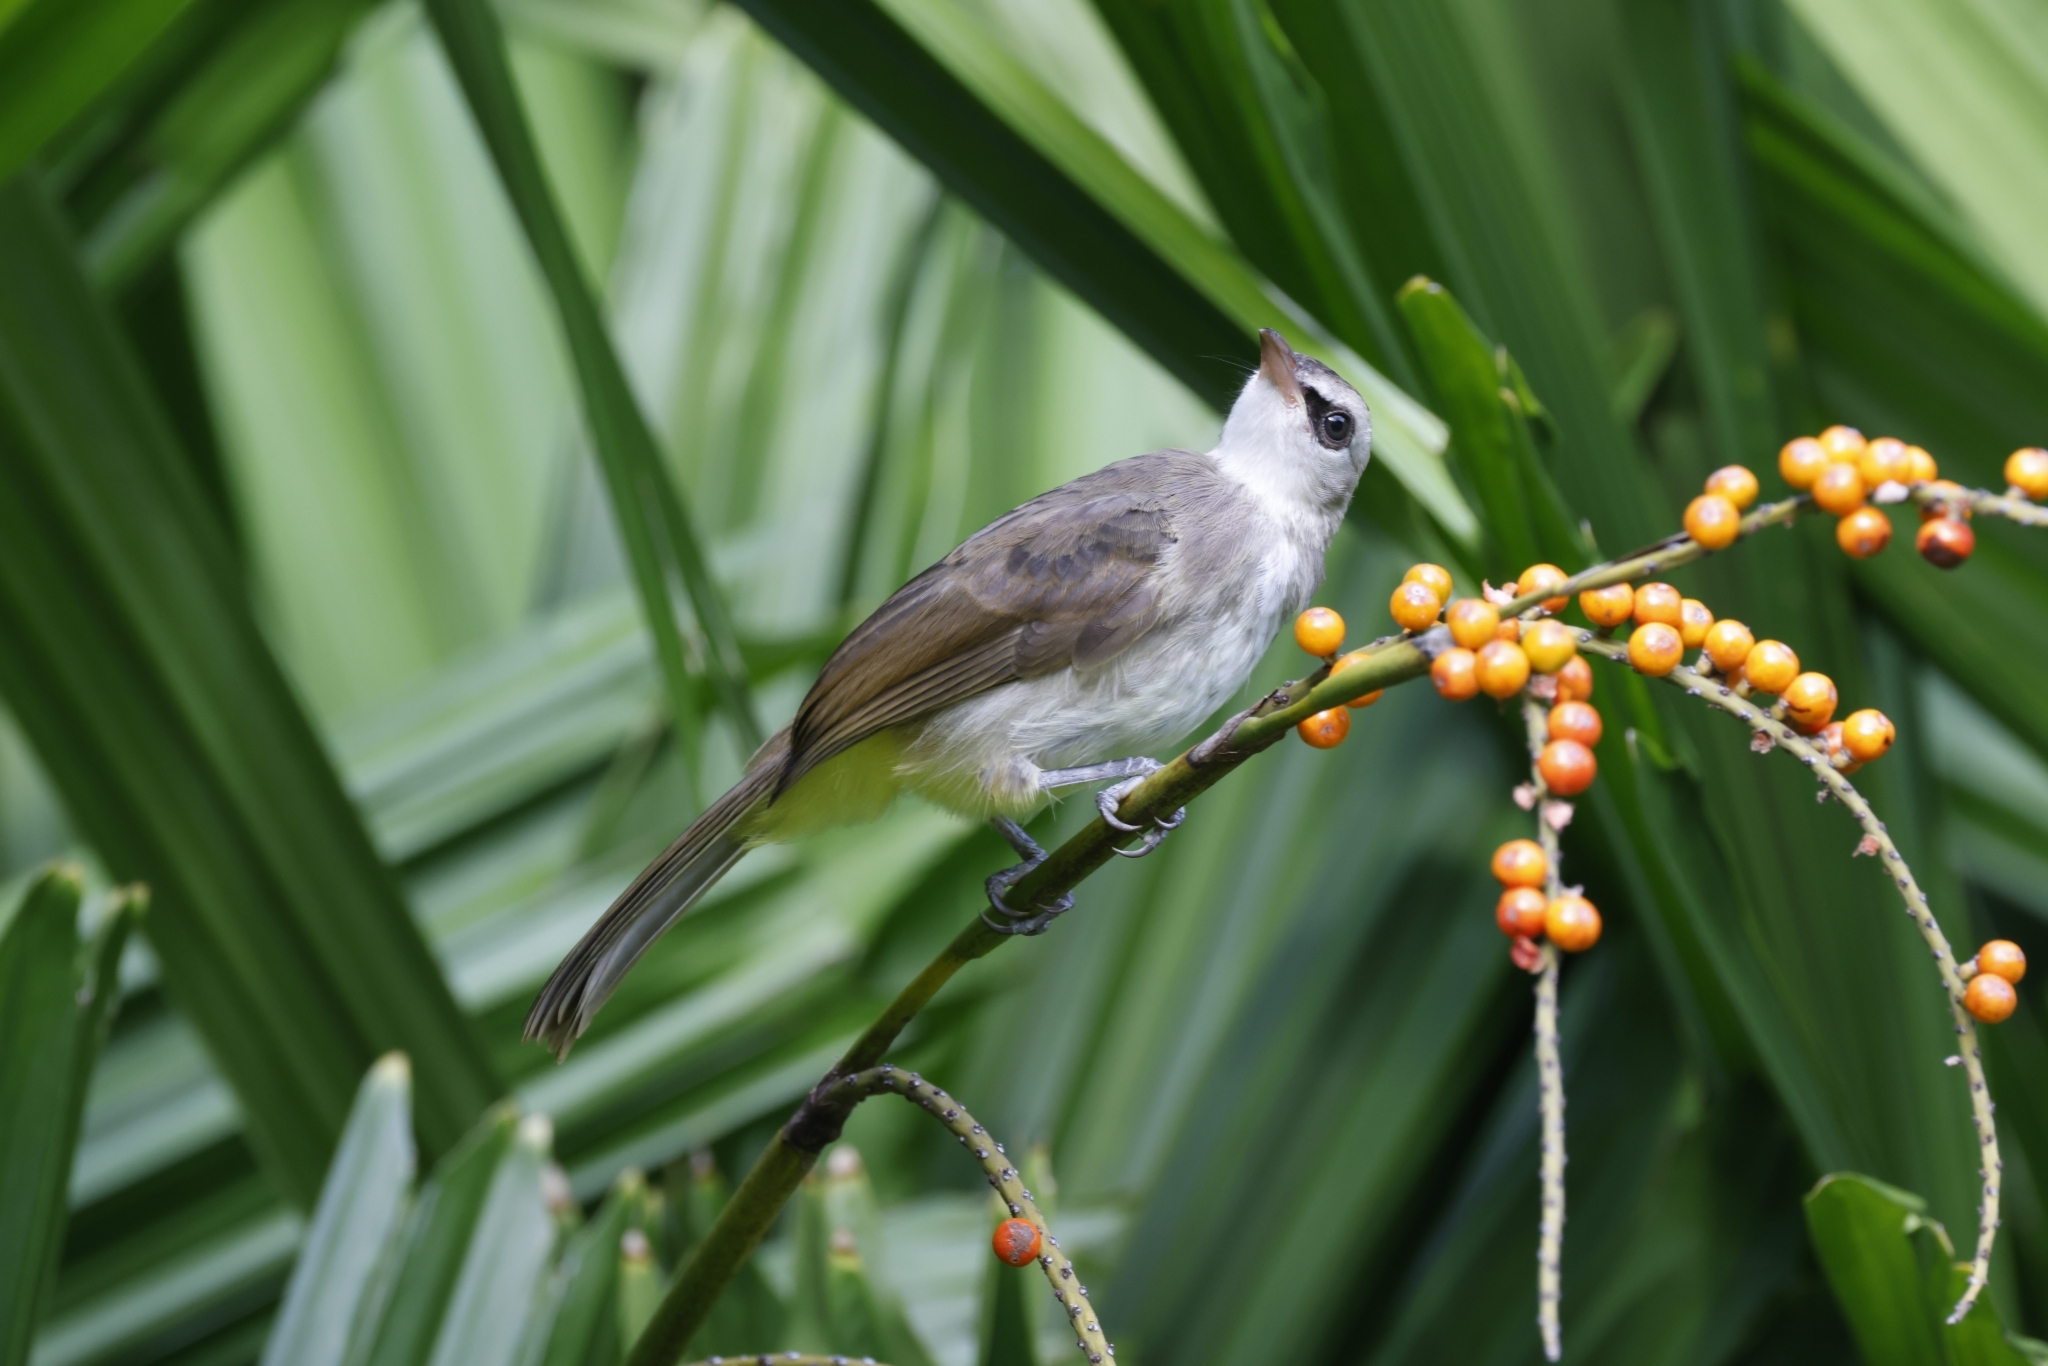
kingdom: Animalia
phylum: Chordata
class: Aves
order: Passeriformes
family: Pycnonotidae
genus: Pycnonotus
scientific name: Pycnonotus goiavier
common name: Yellow-vented bulbul
